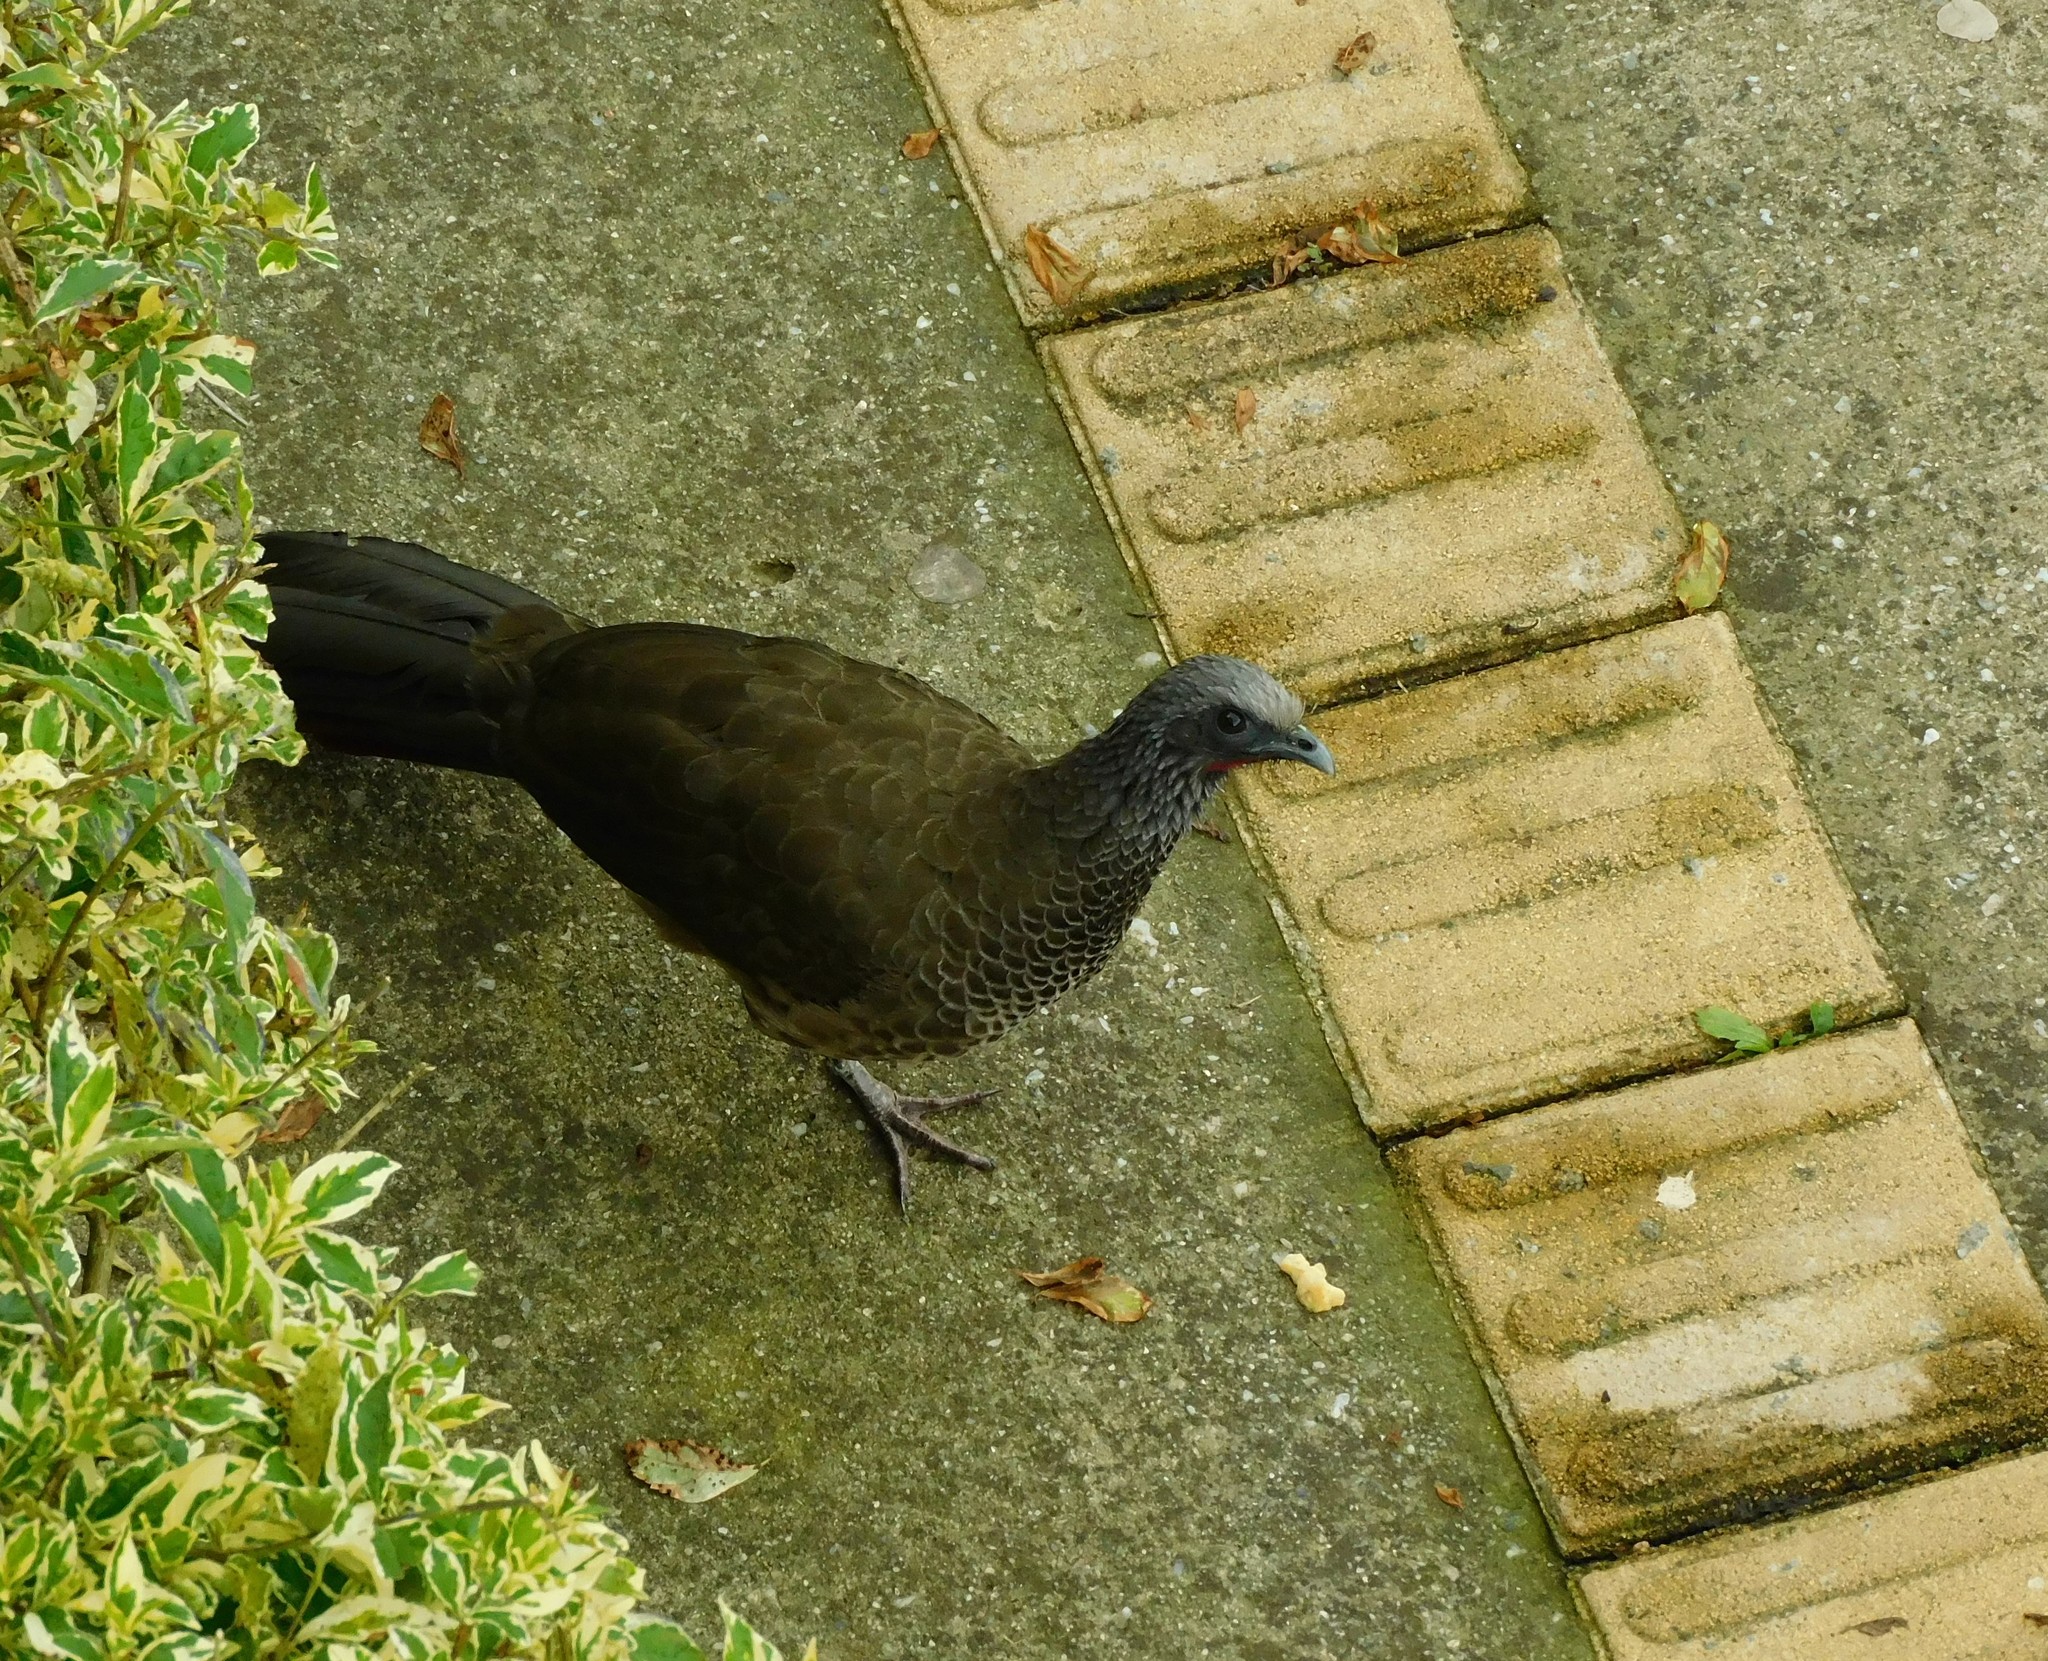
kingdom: Animalia
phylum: Chordata
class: Aves
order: Galliformes
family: Cracidae
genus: Ortalis
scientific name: Ortalis columbiana
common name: Colombian chachalaca
